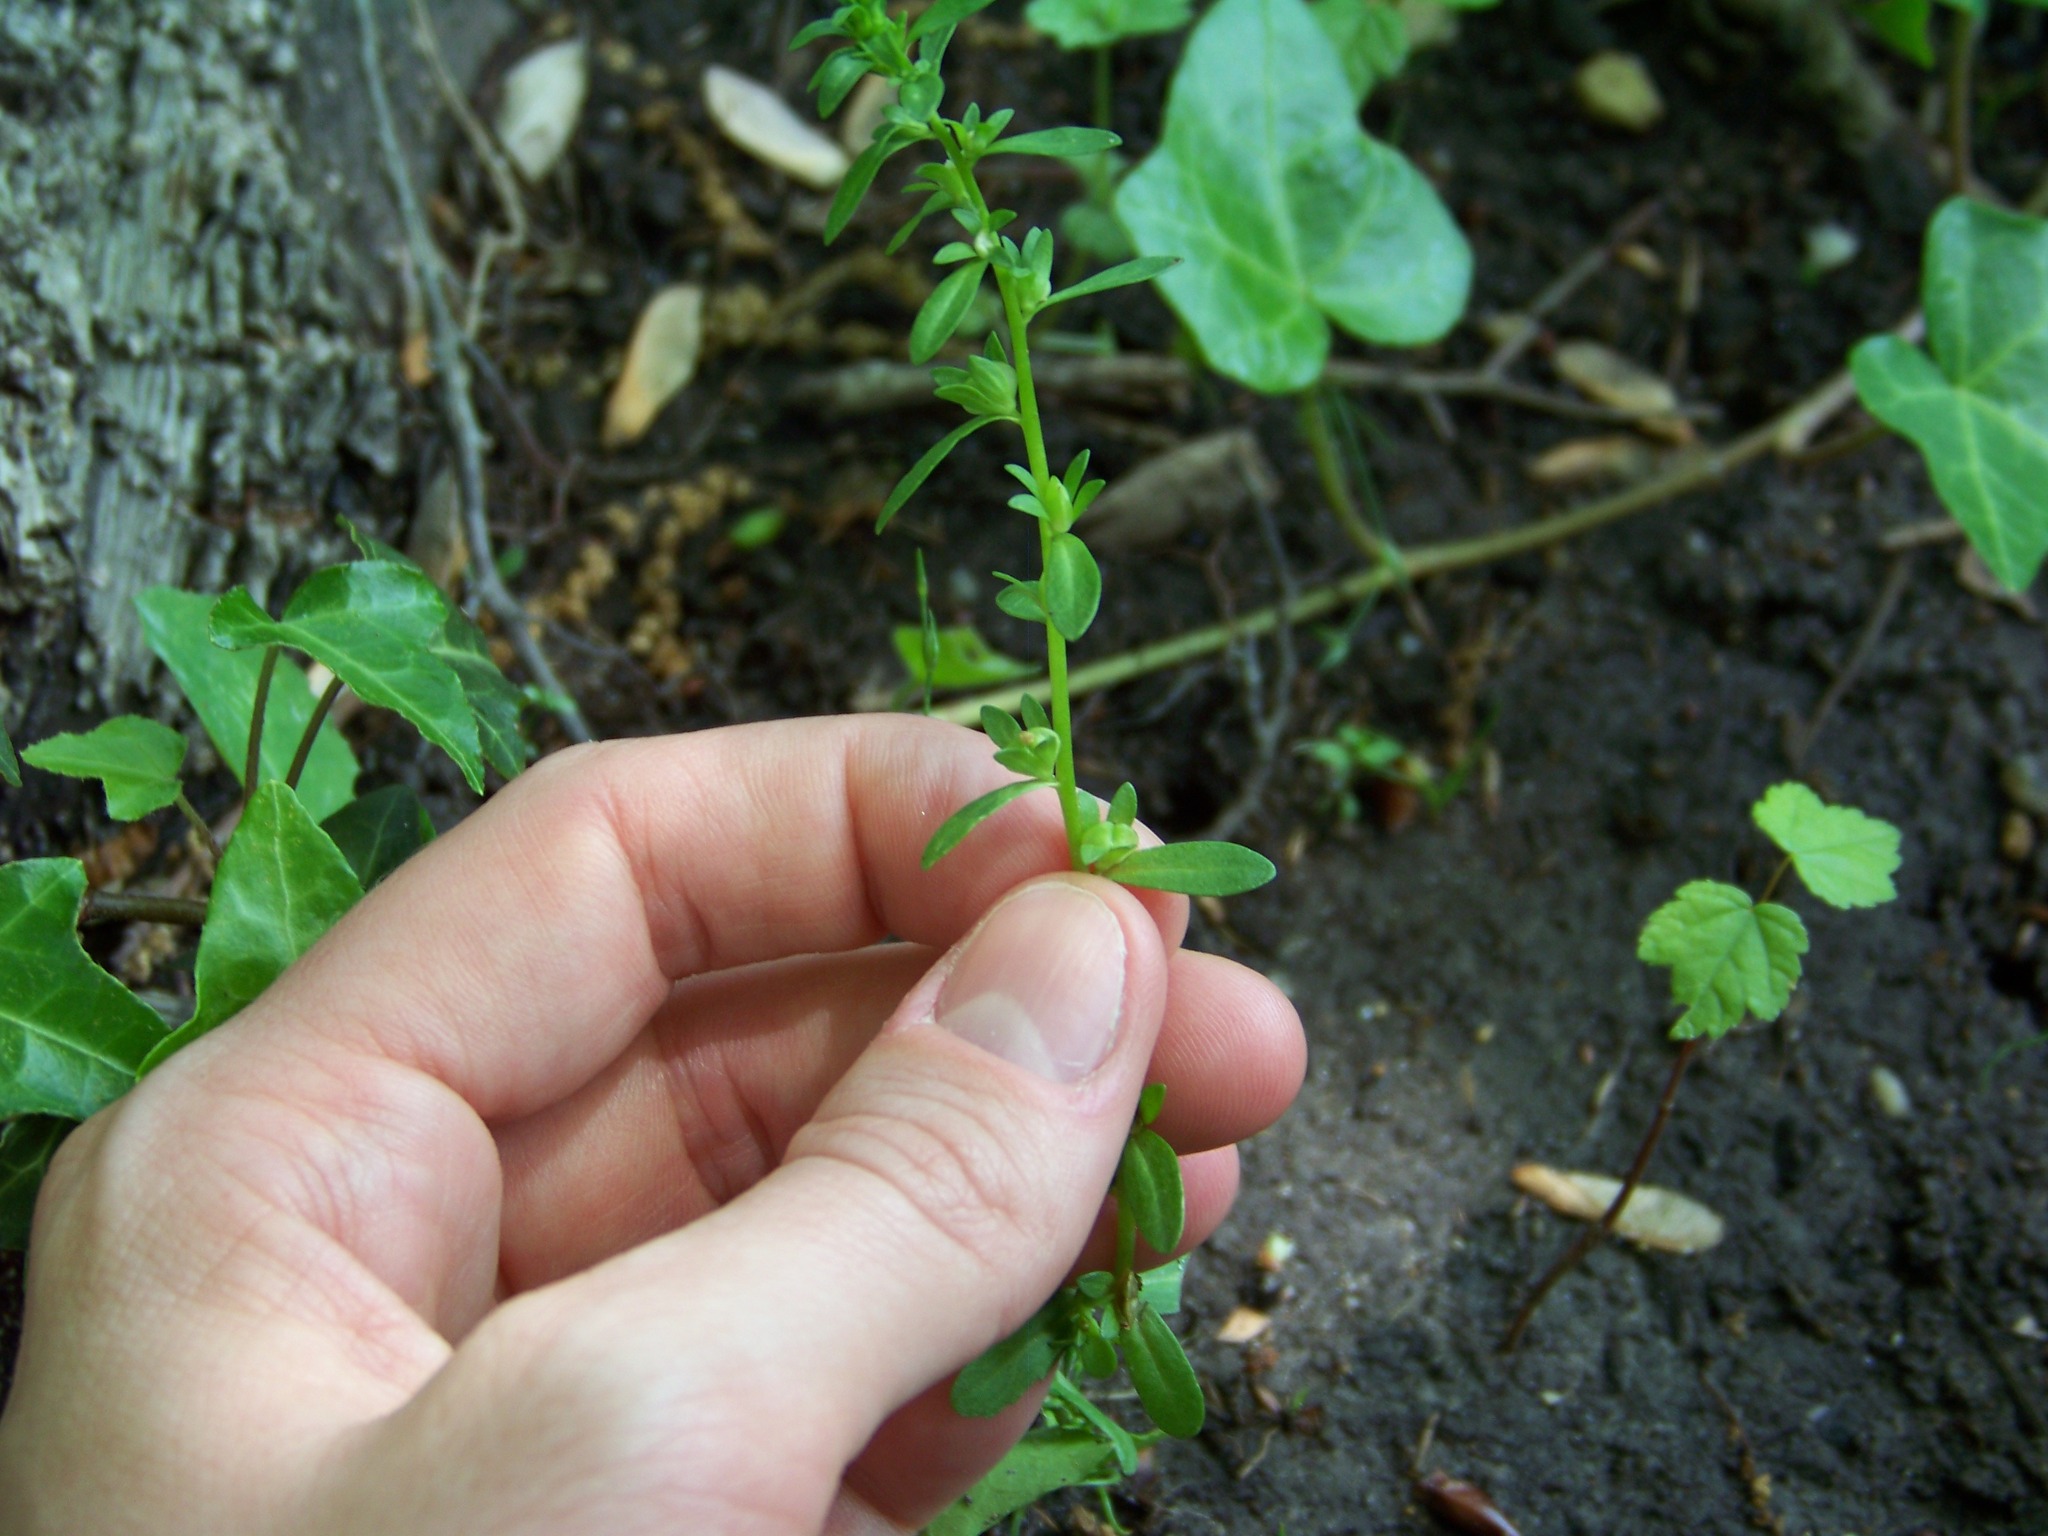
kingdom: Plantae
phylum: Tracheophyta
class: Magnoliopsida
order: Lamiales
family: Plantaginaceae
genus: Veronica
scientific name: Veronica peregrina
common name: Neckweed
